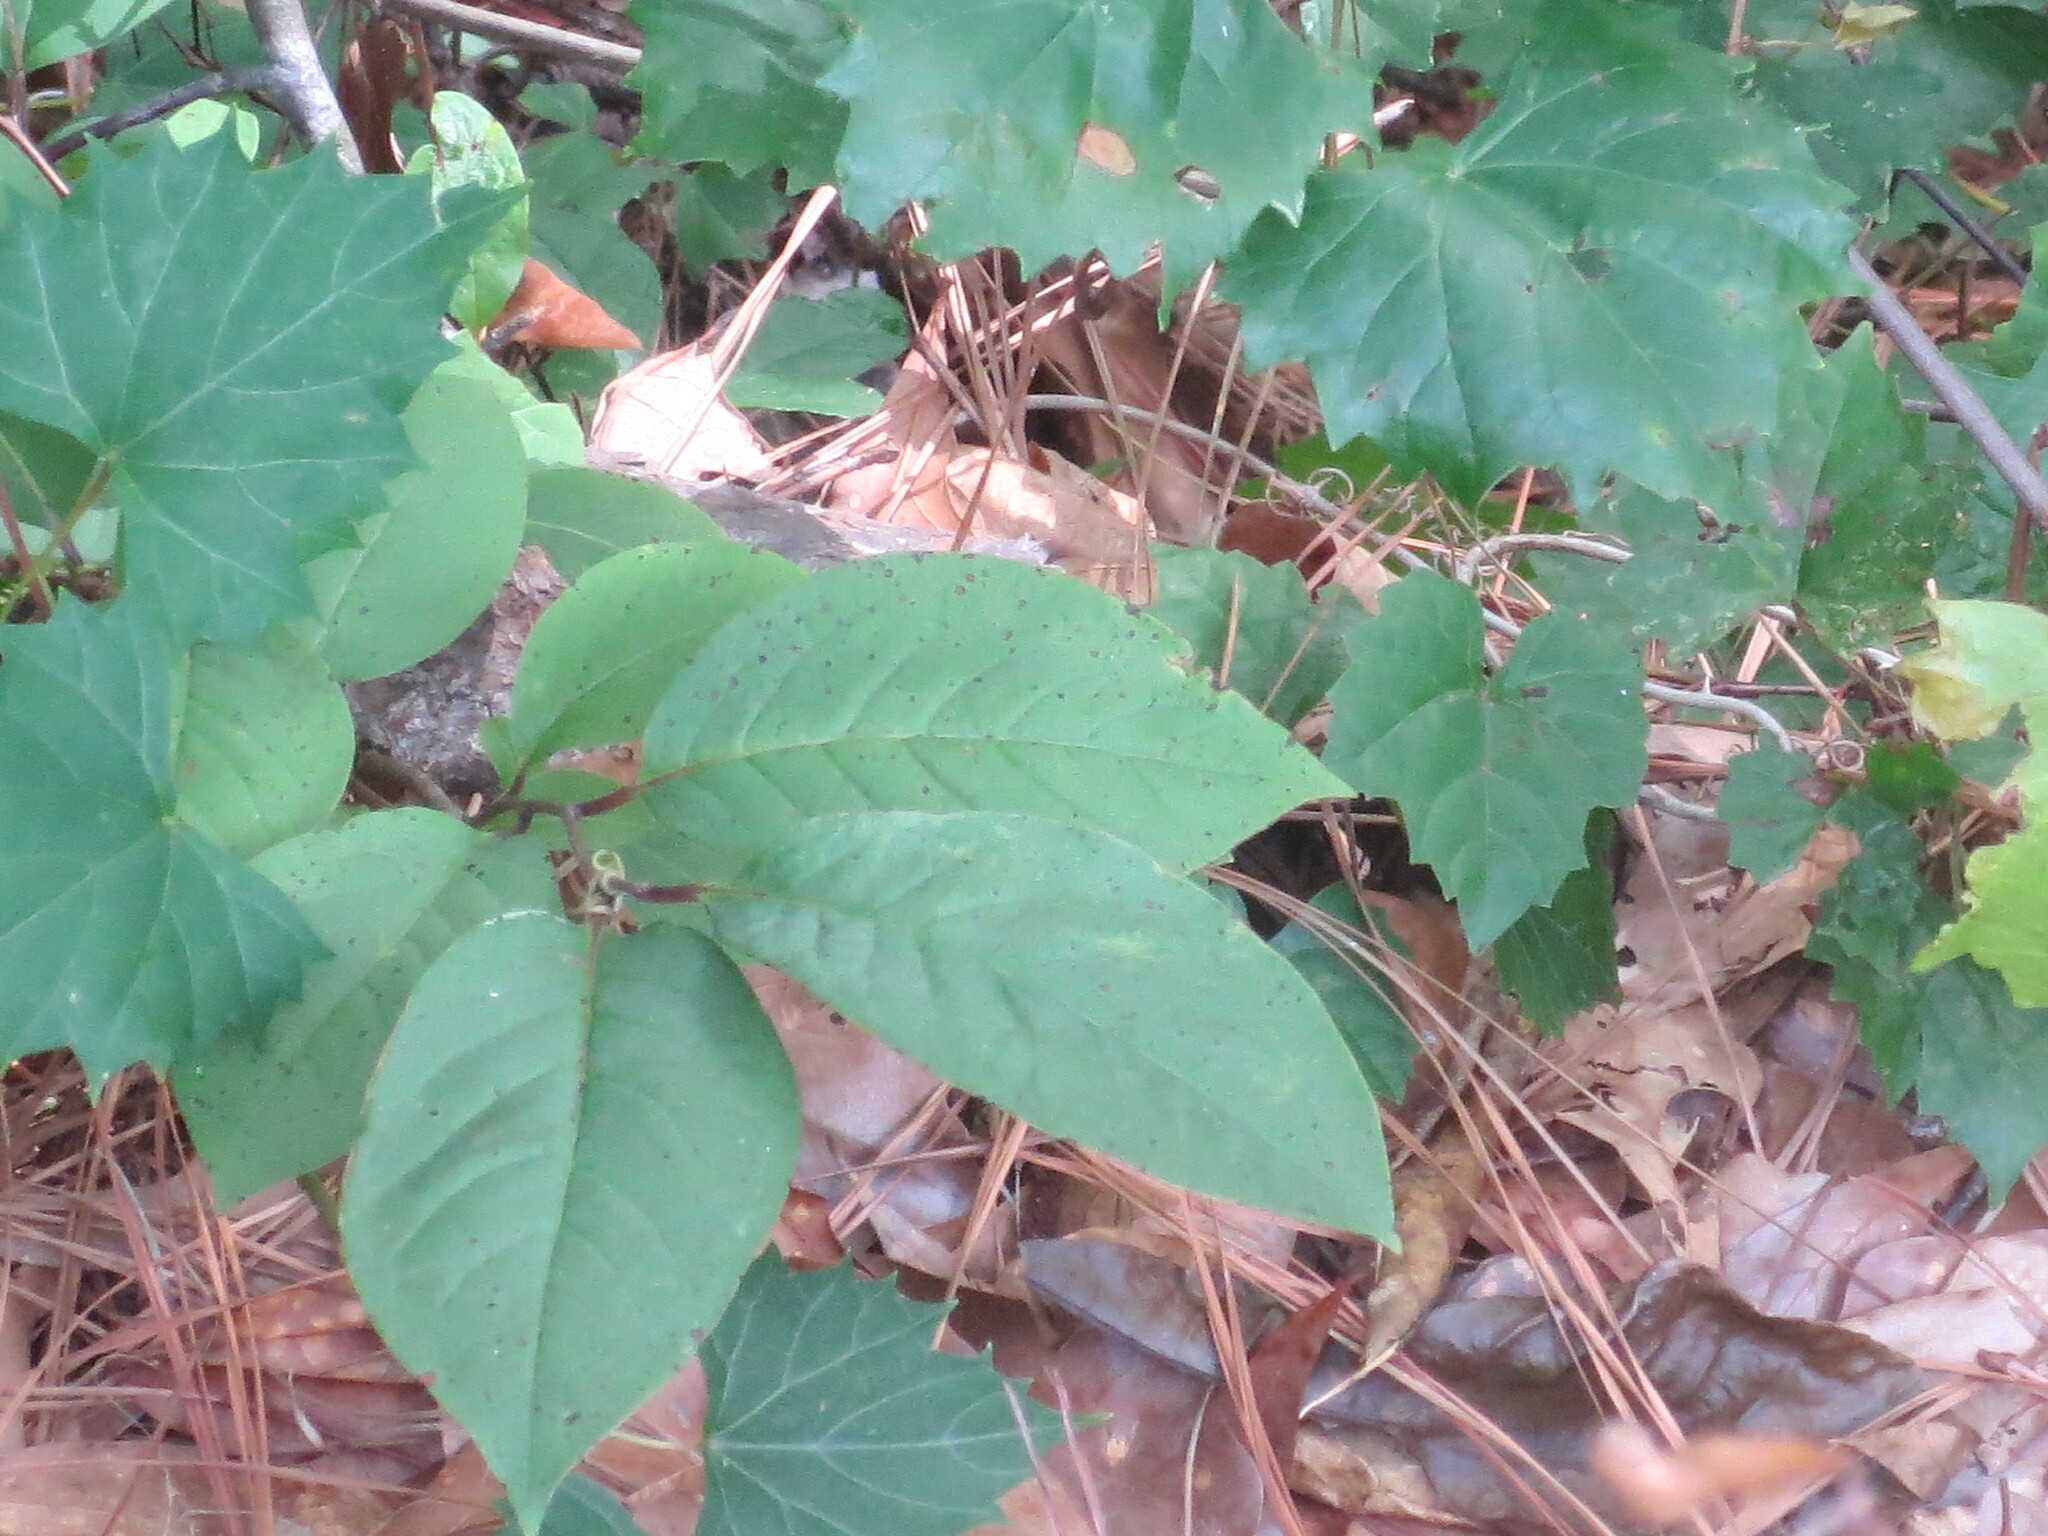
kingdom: Plantae
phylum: Tracheophyta
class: Magnoliopsida
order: Ericales
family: Ebenaceae
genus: Diospyros
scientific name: Diospyros virginiana
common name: Persimmon
